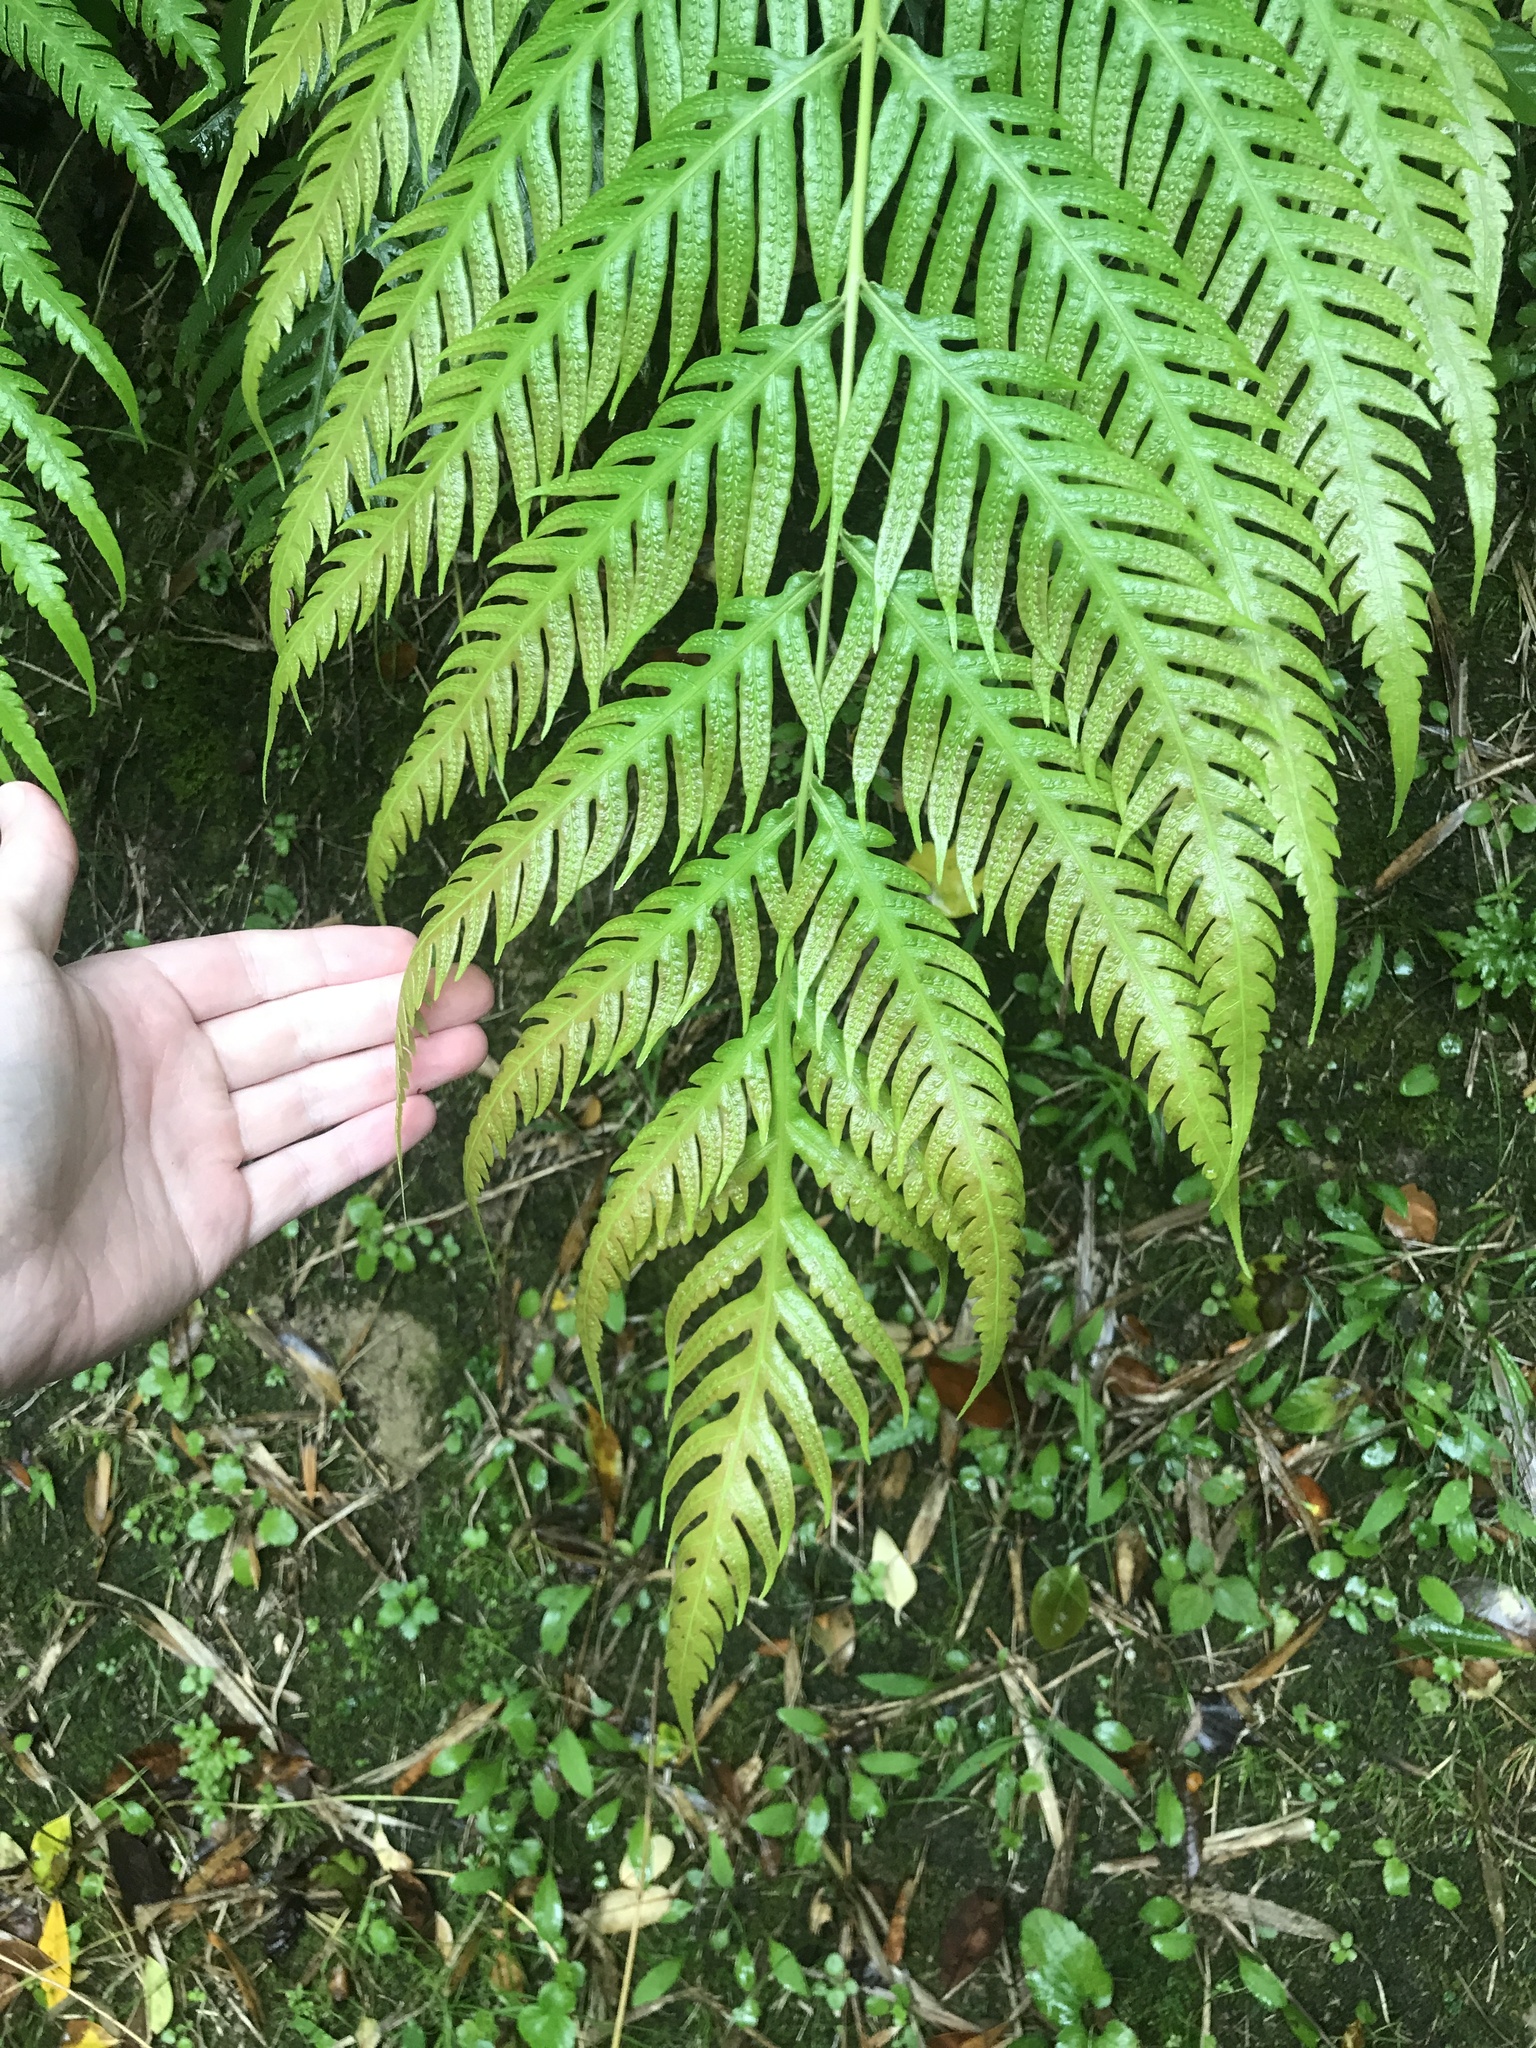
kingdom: Plantae
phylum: Tracheophyta
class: Polypodiopsida
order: Polypodiales
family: Blechnaceae
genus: Woodwardia
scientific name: Woodwardia prolifera
